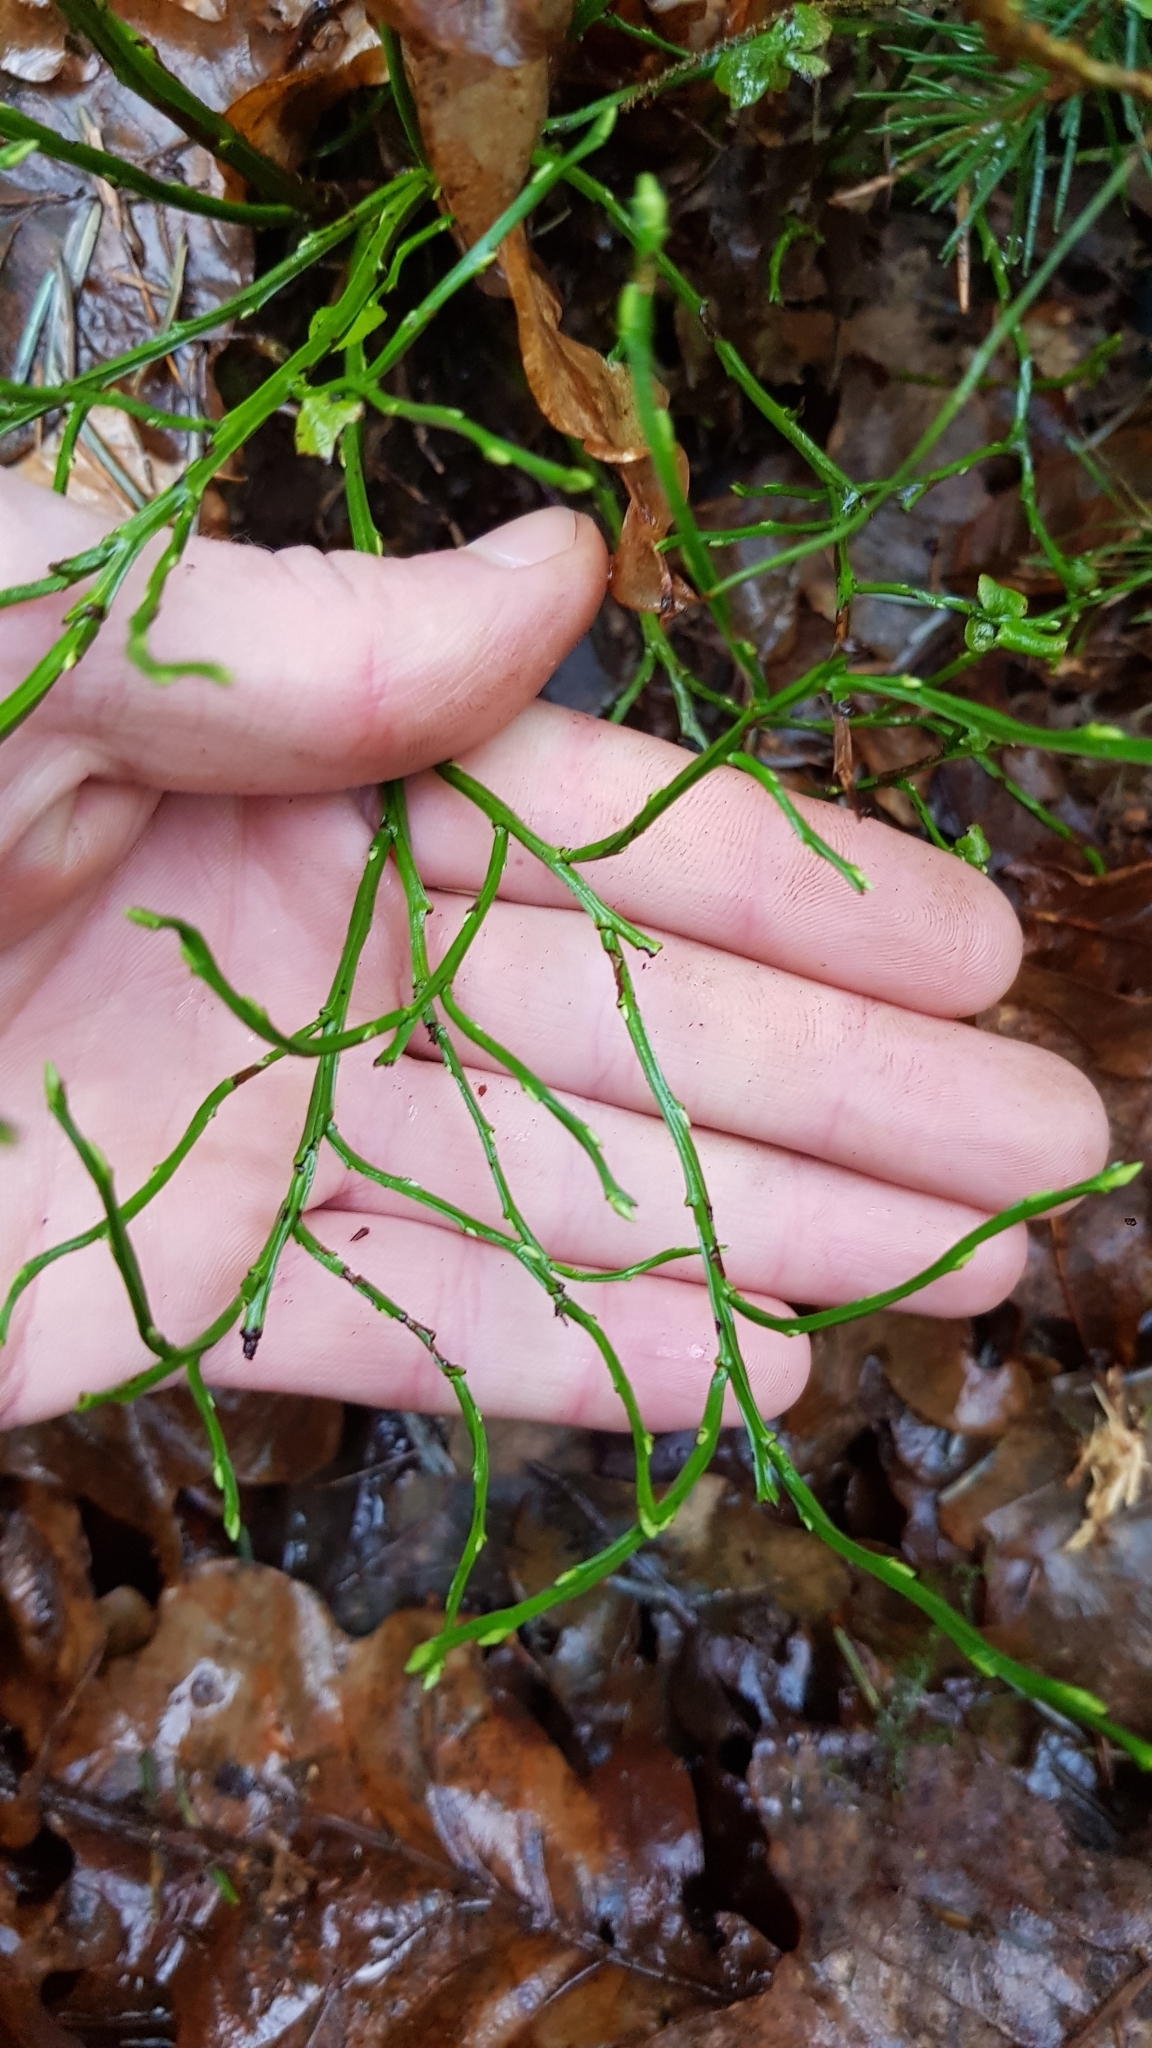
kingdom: Plantae
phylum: Tracheophyta
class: Magnoliopsida
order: Ericales
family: Ericaceae
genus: Vaccinium
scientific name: Vaccinium myrtillus
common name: Bilberry
